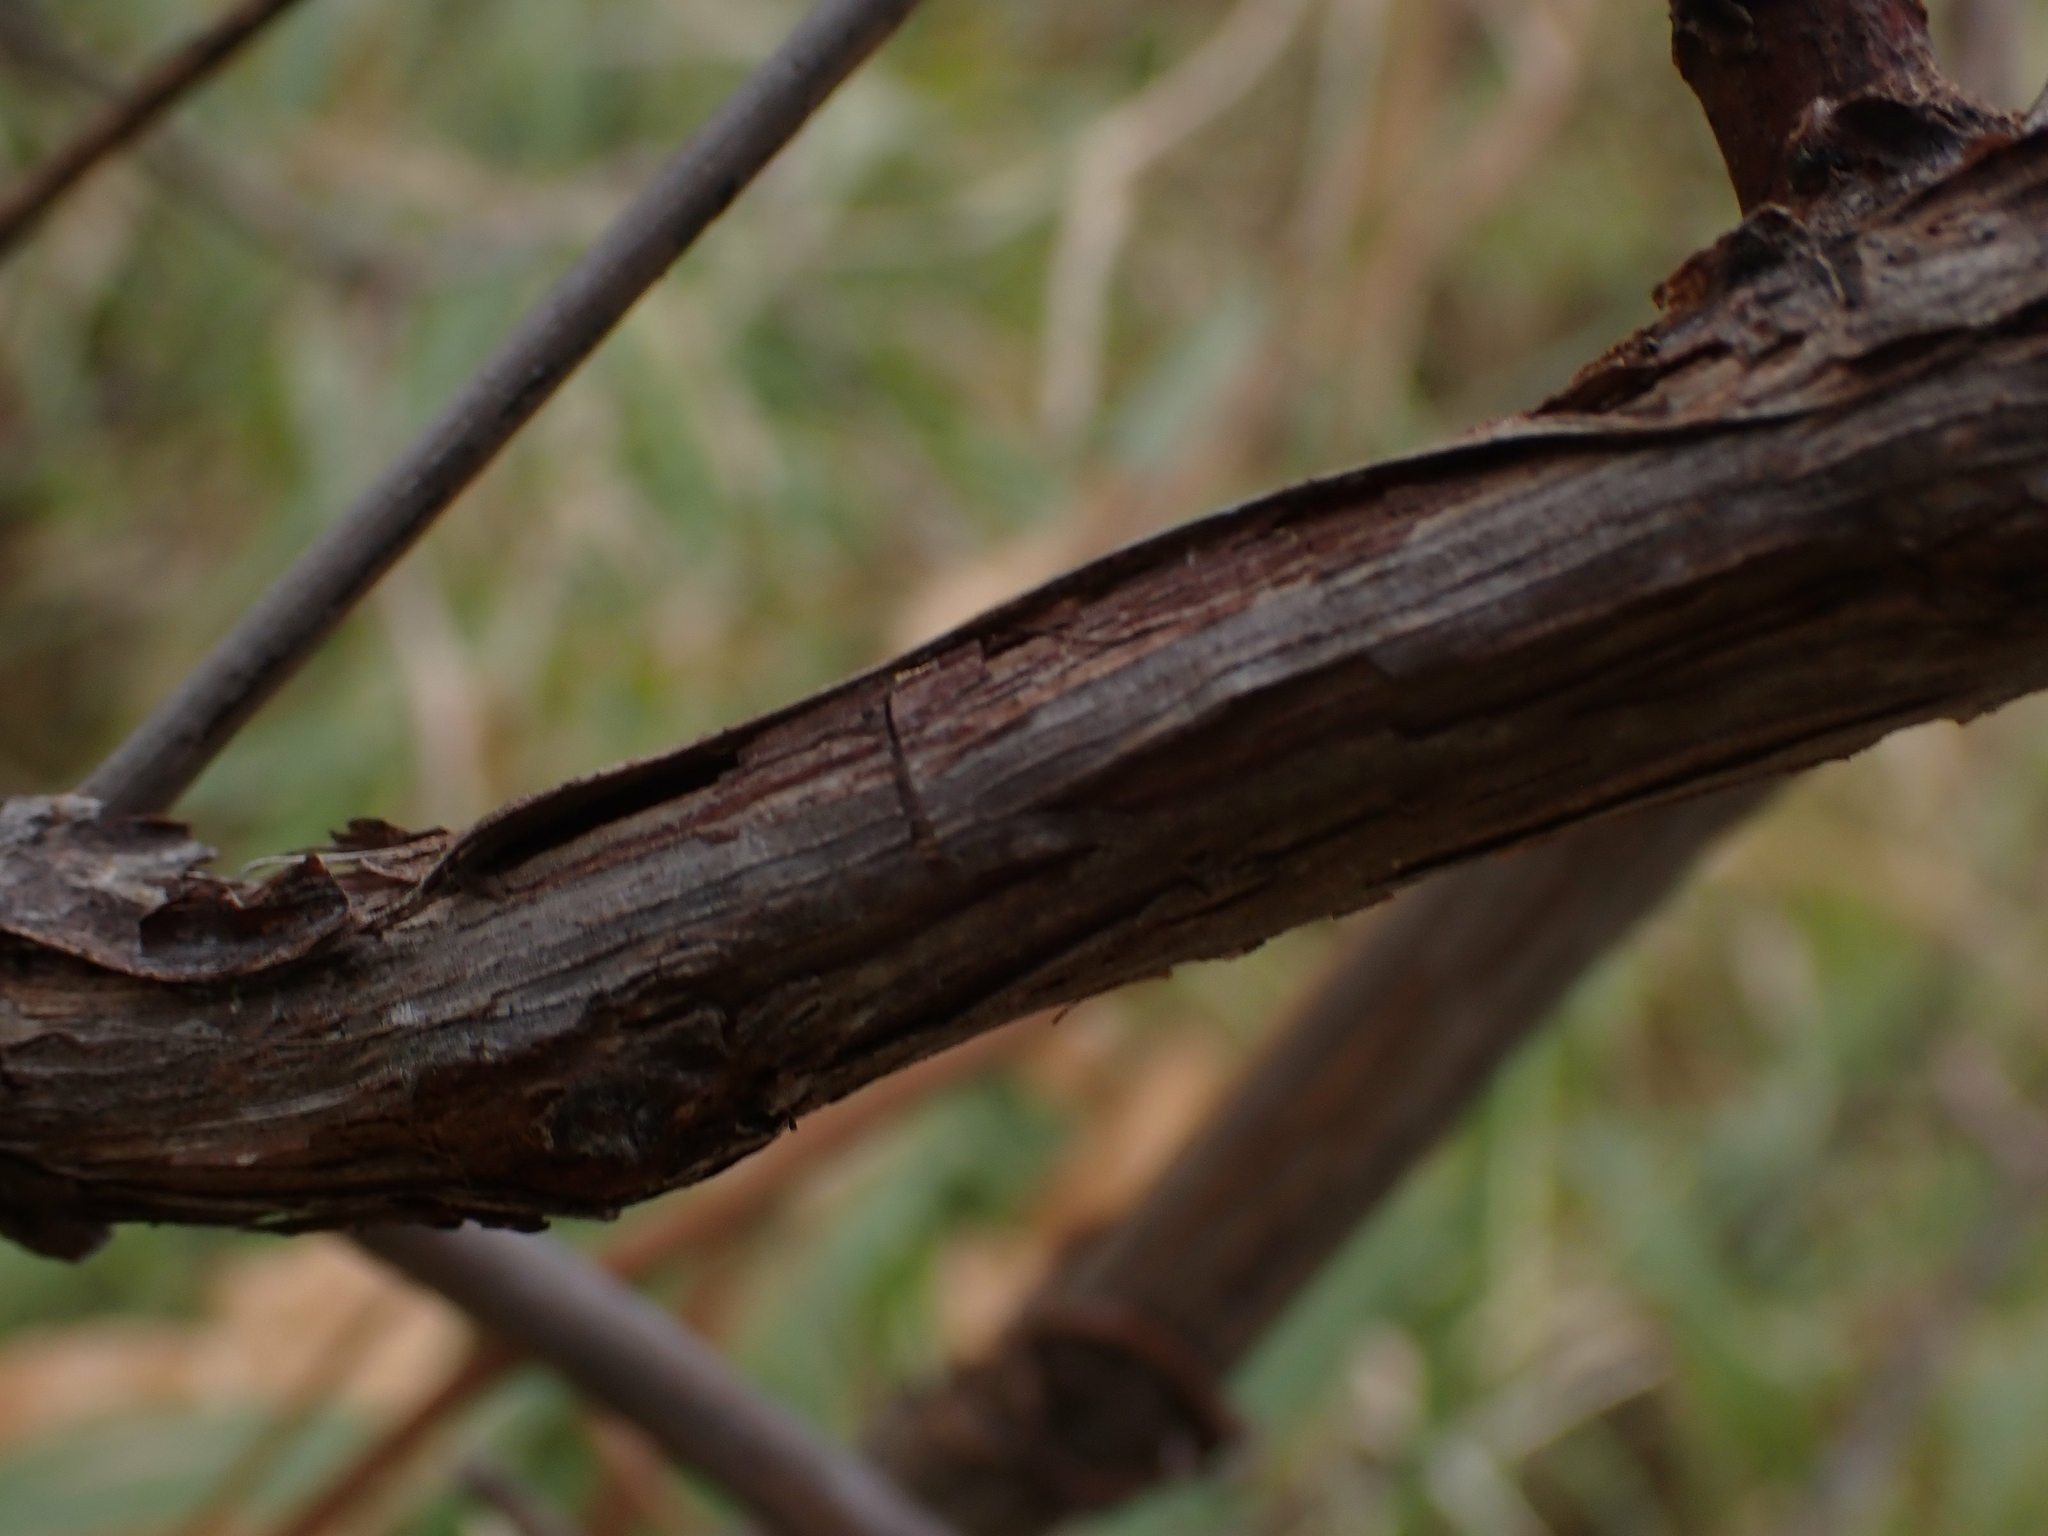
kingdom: Plantae
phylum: Tracheophyta
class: Magnoliopsida
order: Vitales
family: Vitaceae
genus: Vitis
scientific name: Vitis riparia
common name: Frost grape
